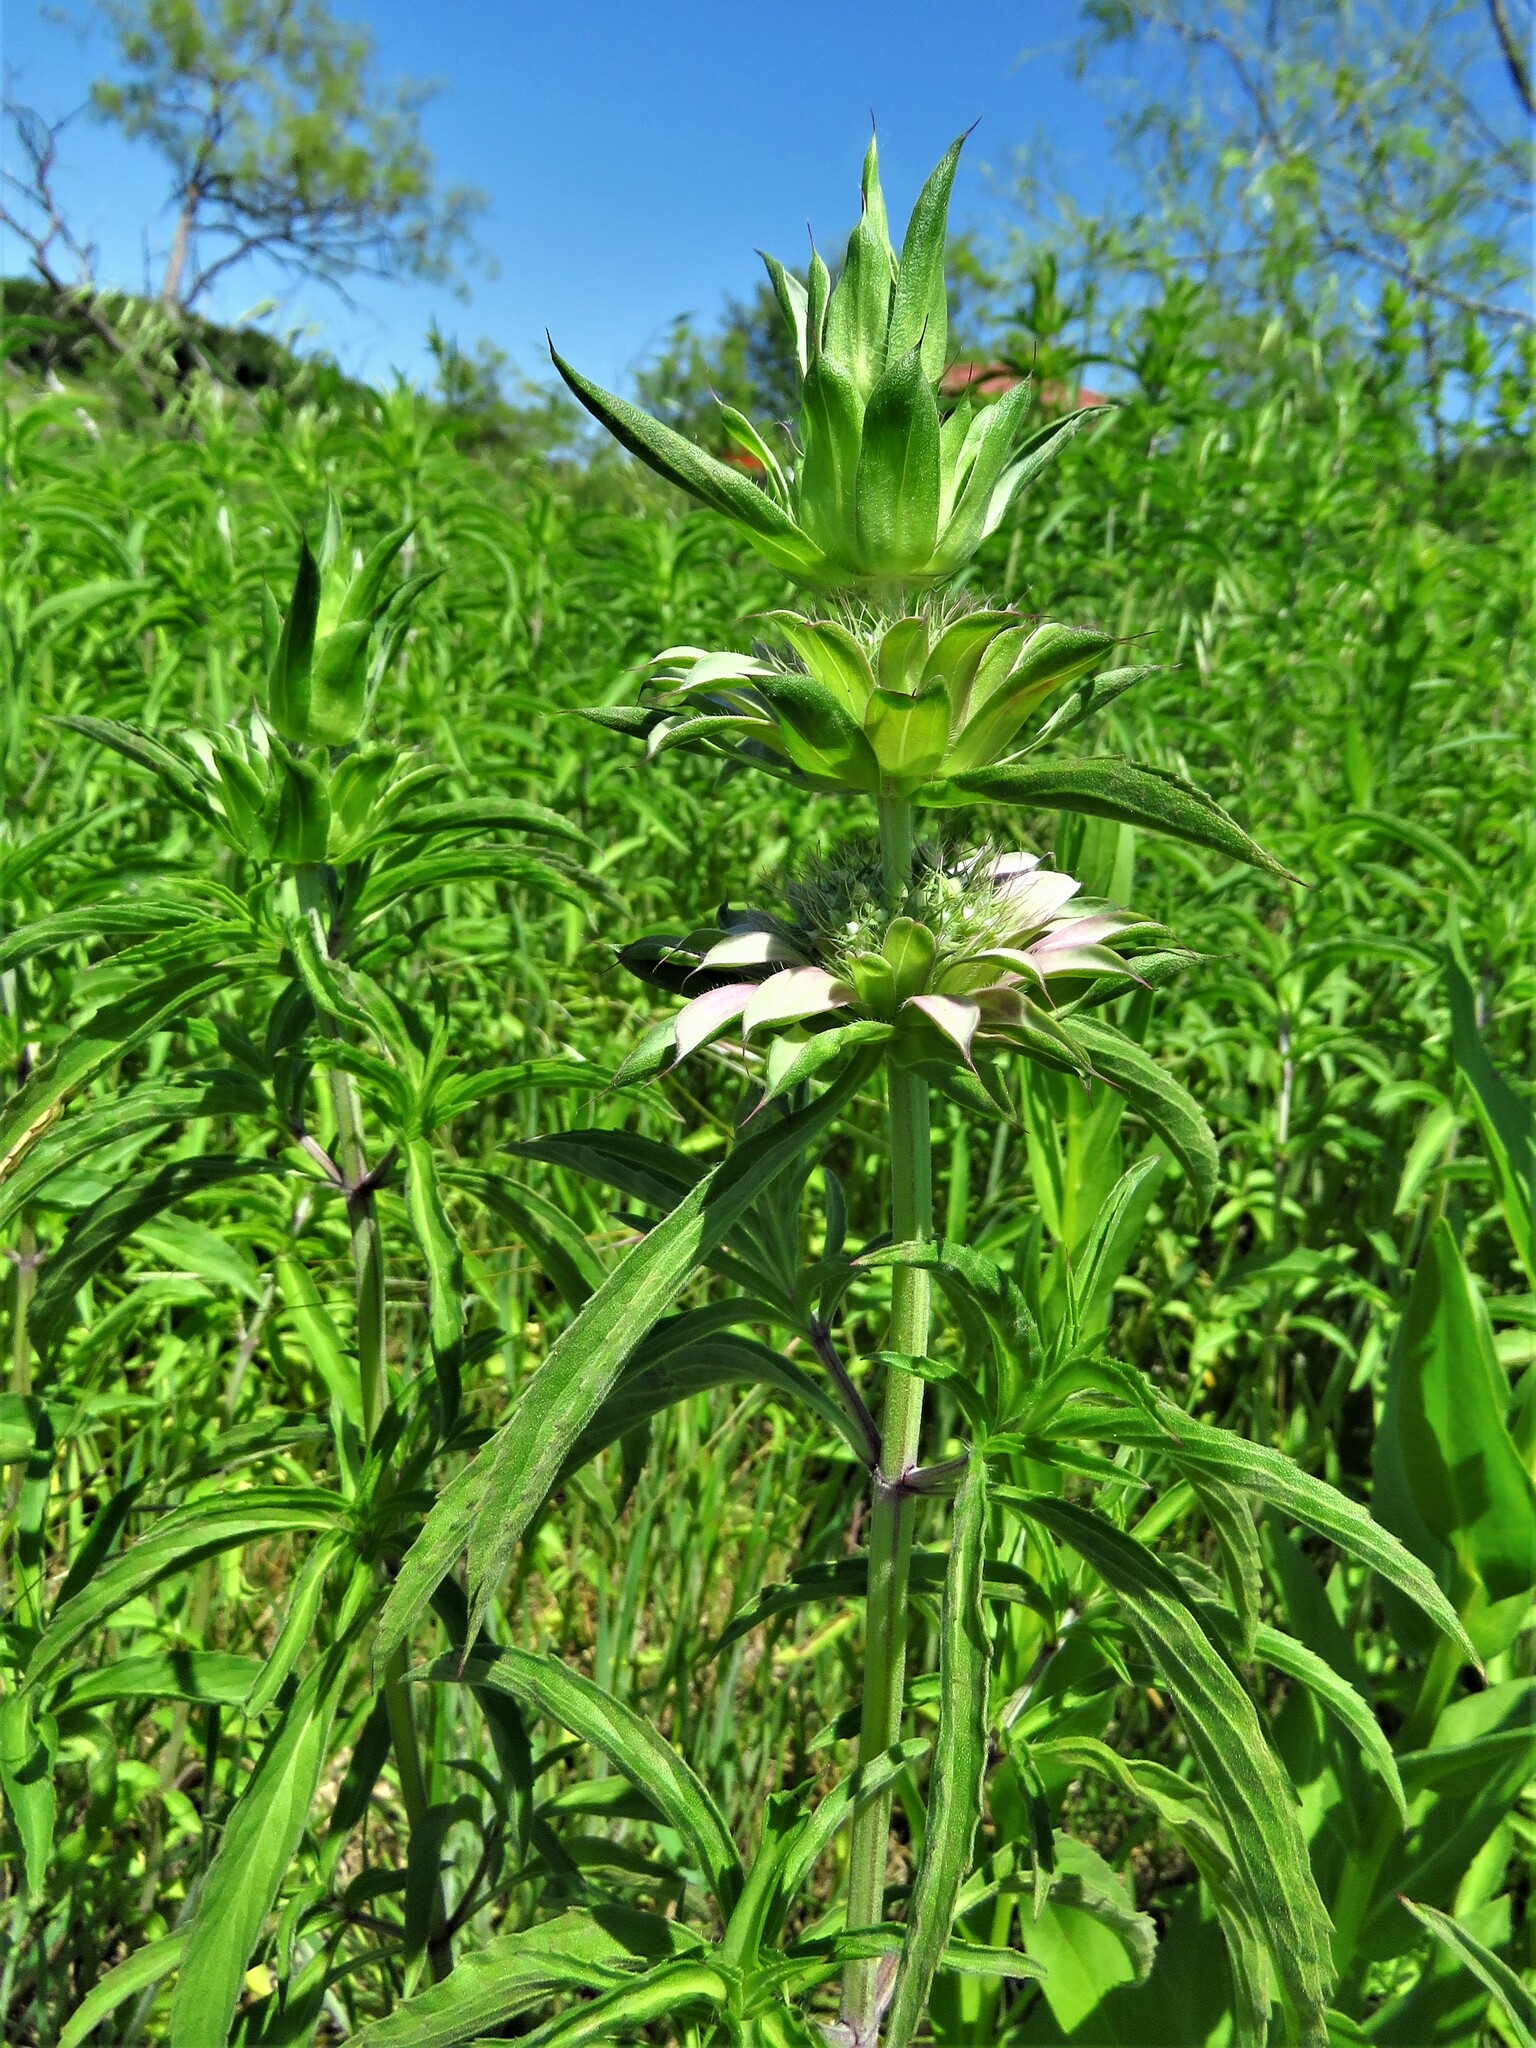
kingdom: Plantae
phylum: Tracheophyta
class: Magnoliopsida
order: Lamiales
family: Lamiaceae
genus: Monarda
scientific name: Monarda citriodora
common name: Lemon beebalm
